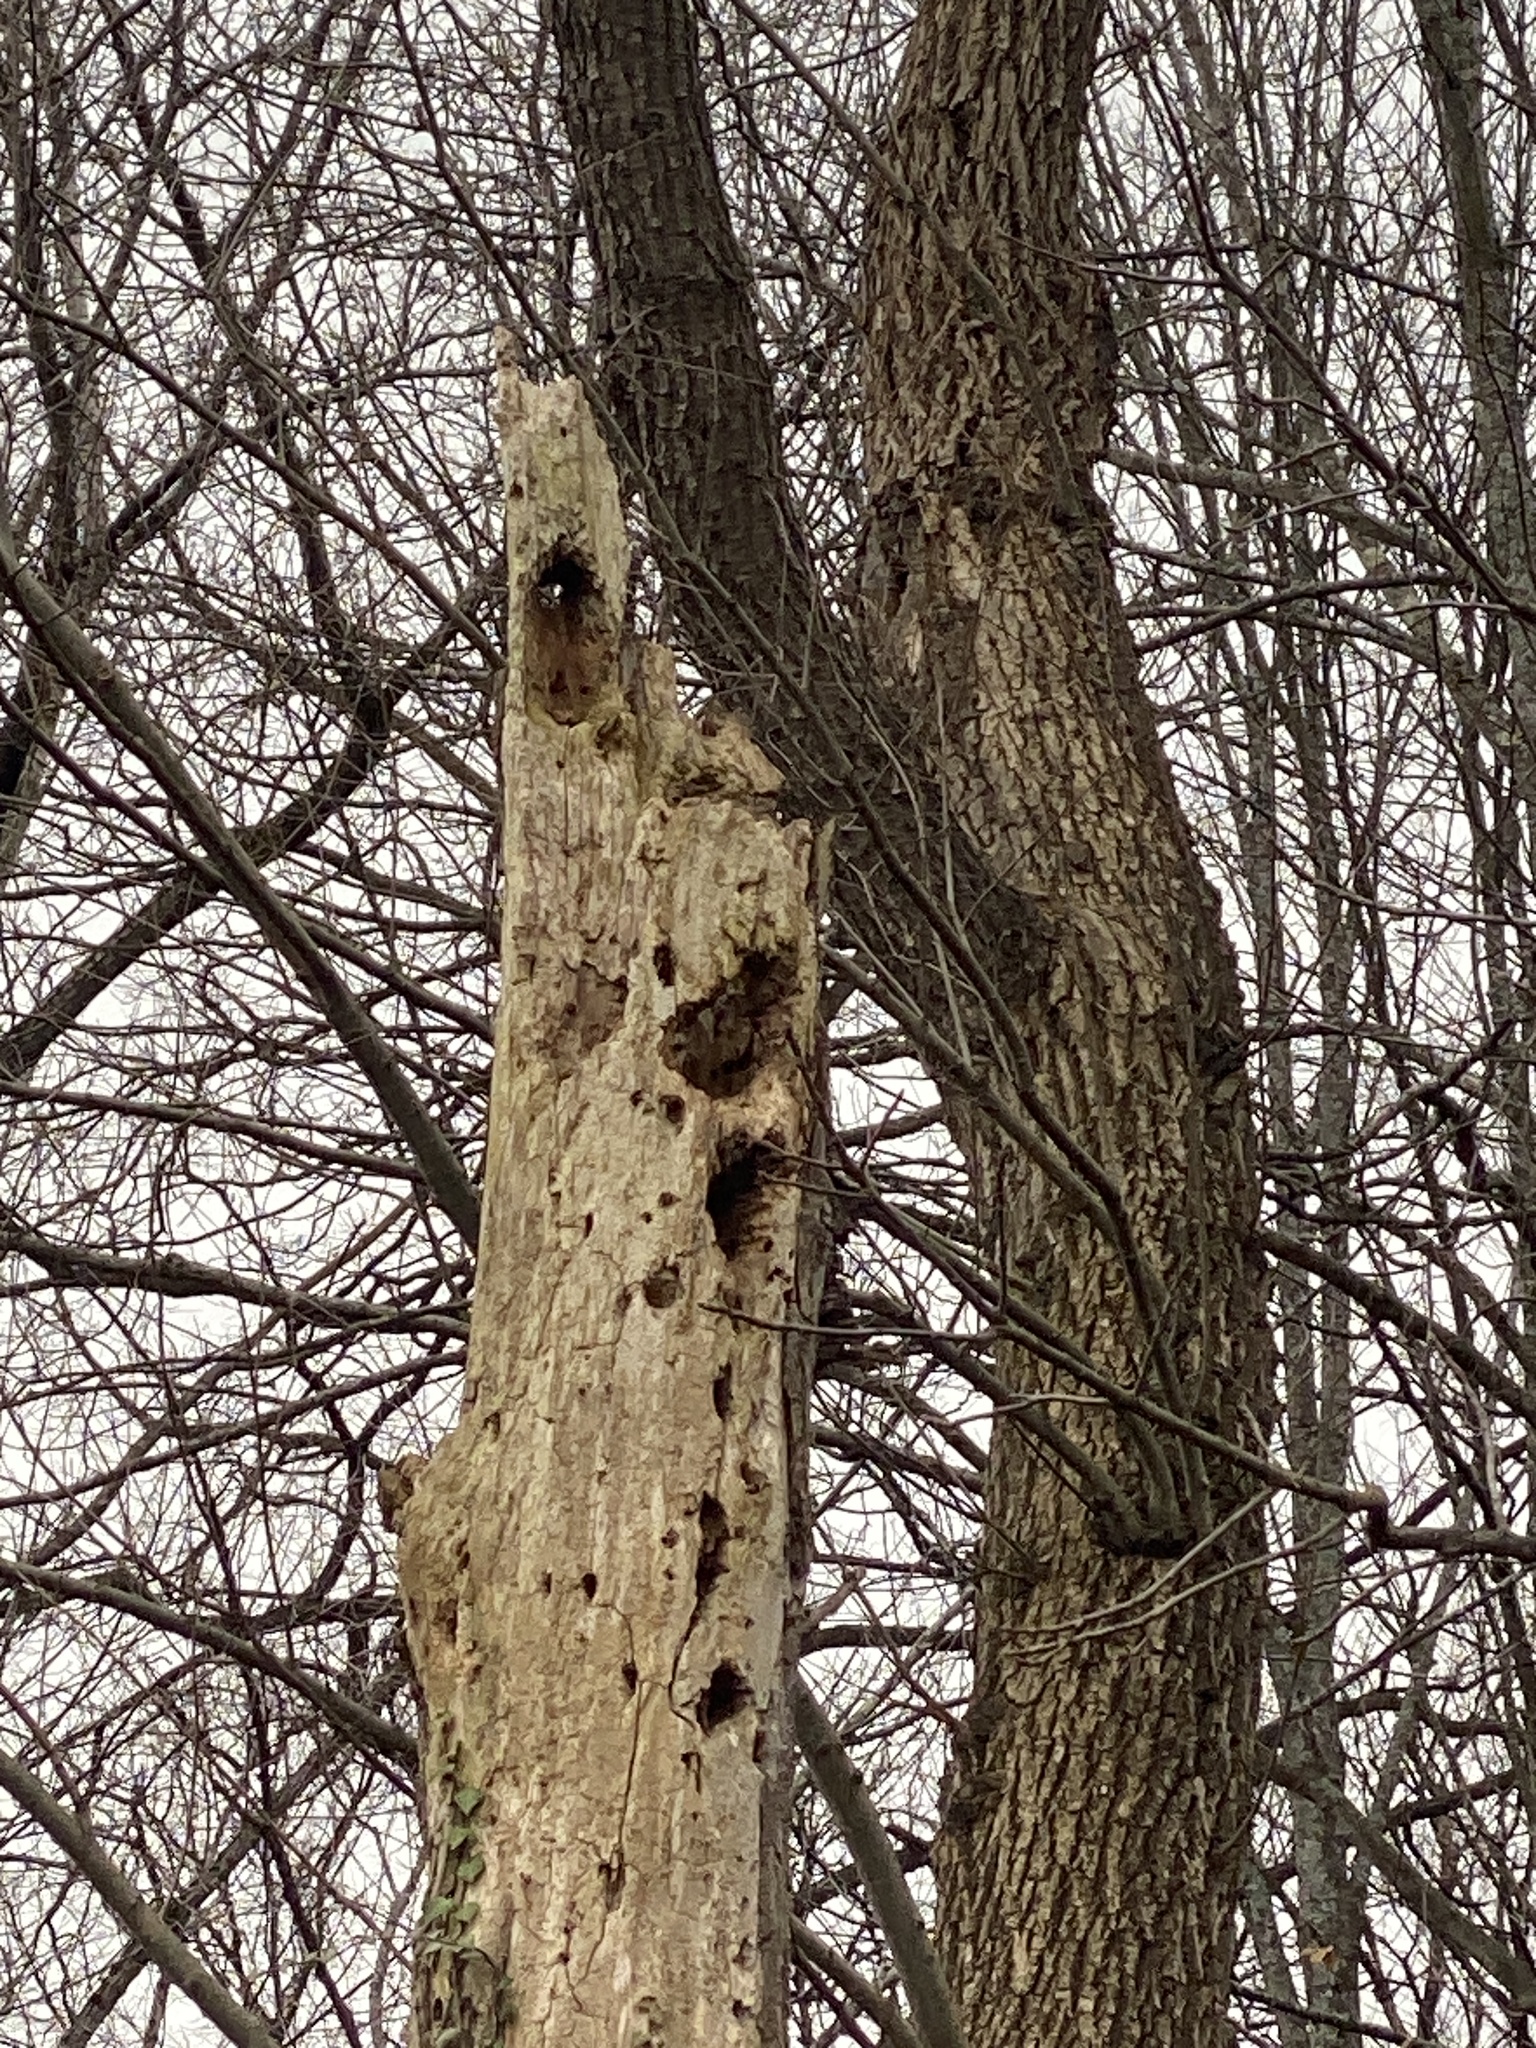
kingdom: Animalia
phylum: Chordata
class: Aves
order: Piciformes
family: Picidae
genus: Dryocopus
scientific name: Dryocopus pileatus
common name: Pileated woodpecker
